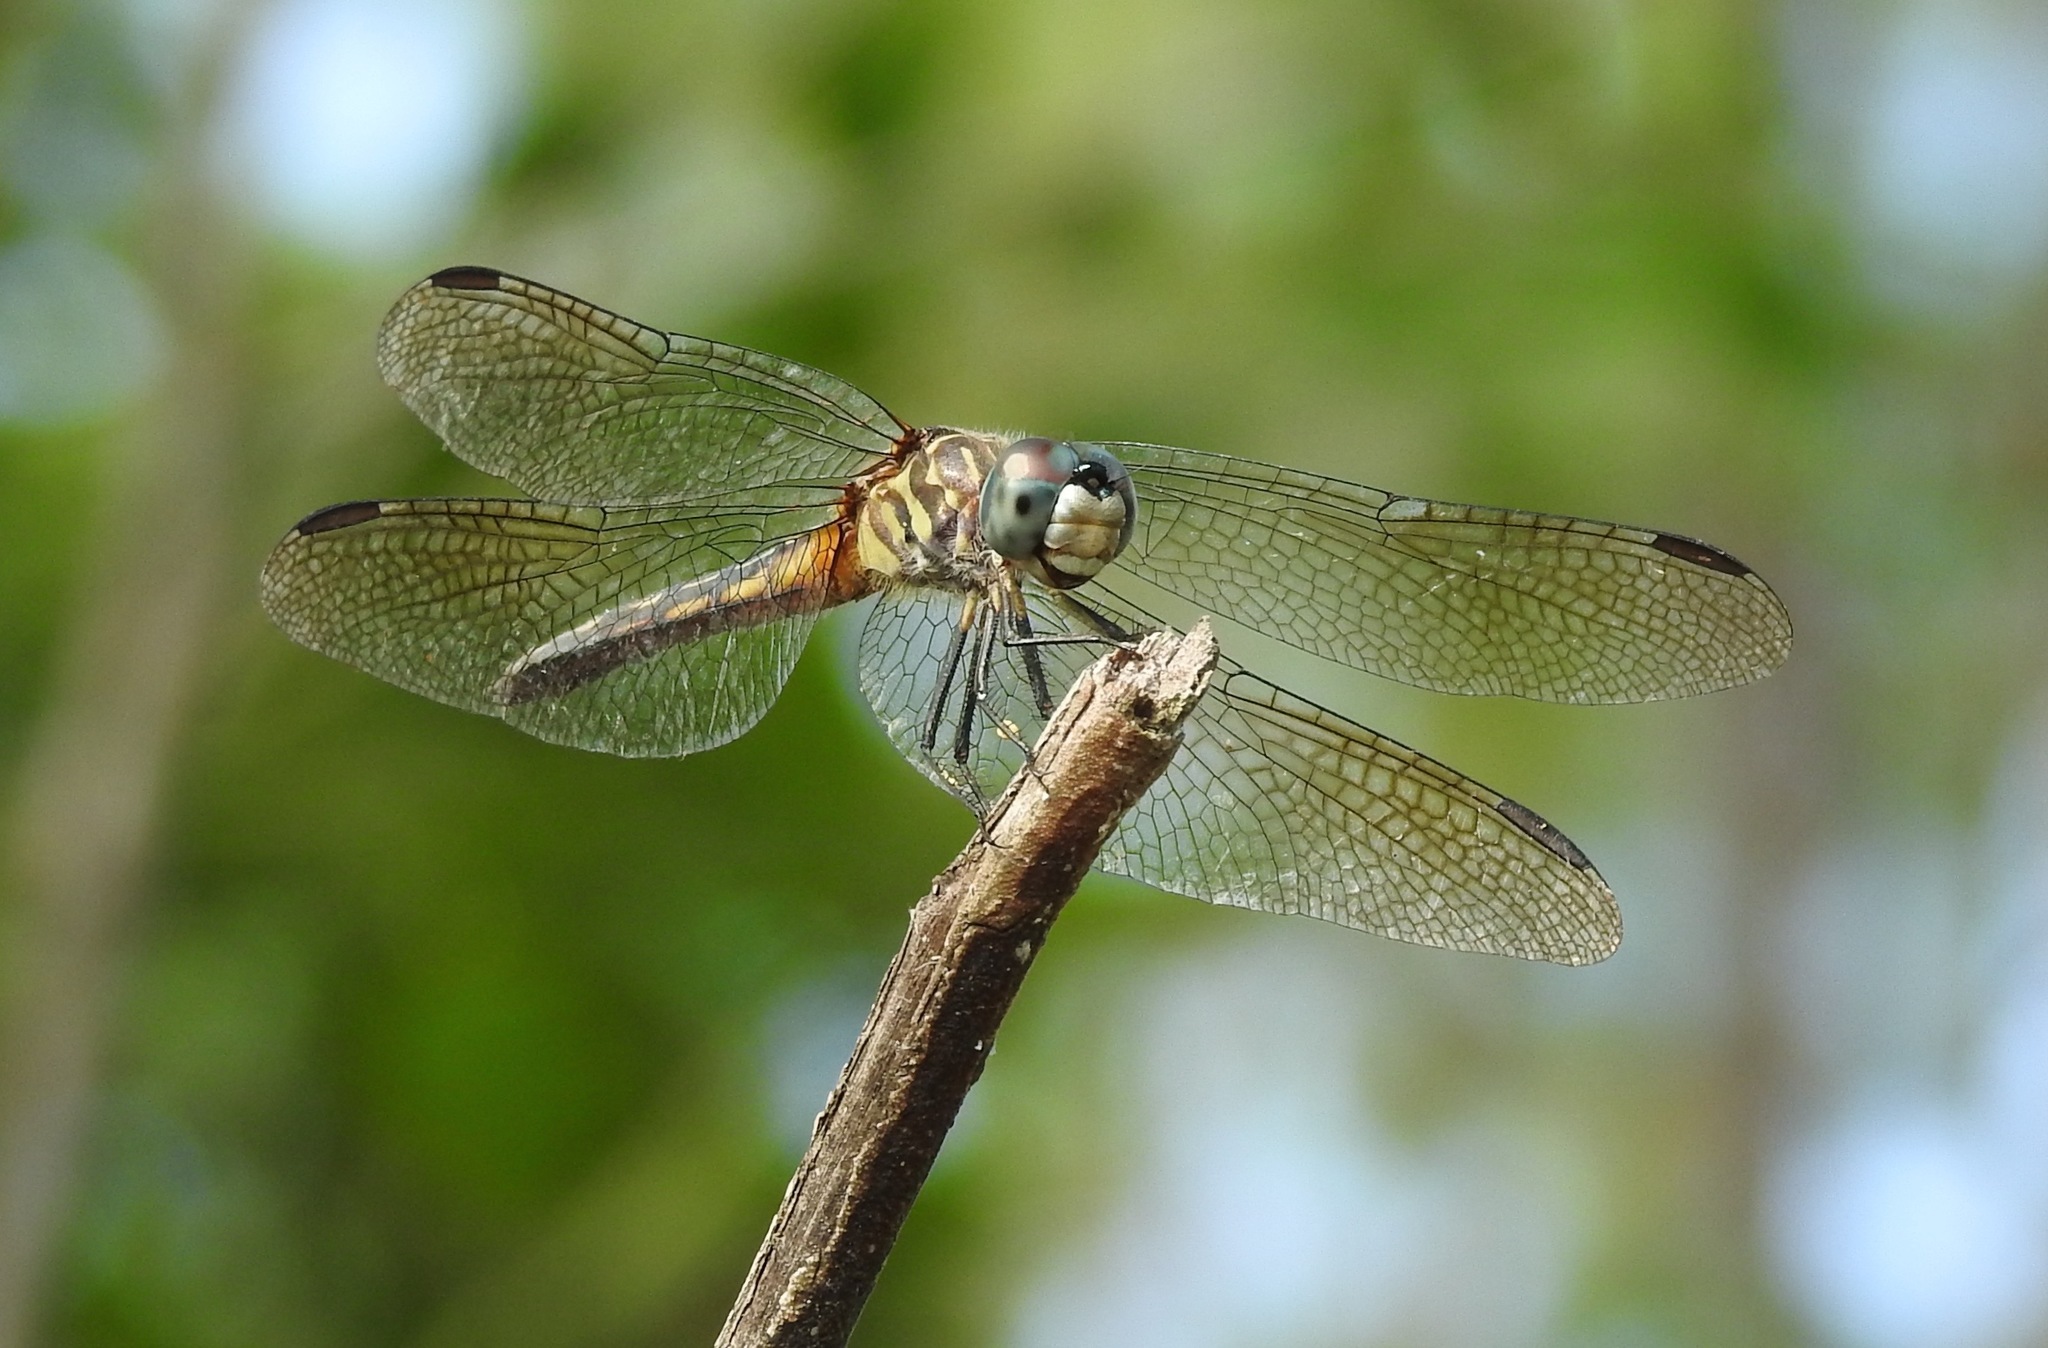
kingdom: Animalia
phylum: Arthropoda
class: Insecta
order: Odonata
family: Libellulidae
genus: Pachydiplax
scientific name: Pachydiplax longipennis
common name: Blue dasher
